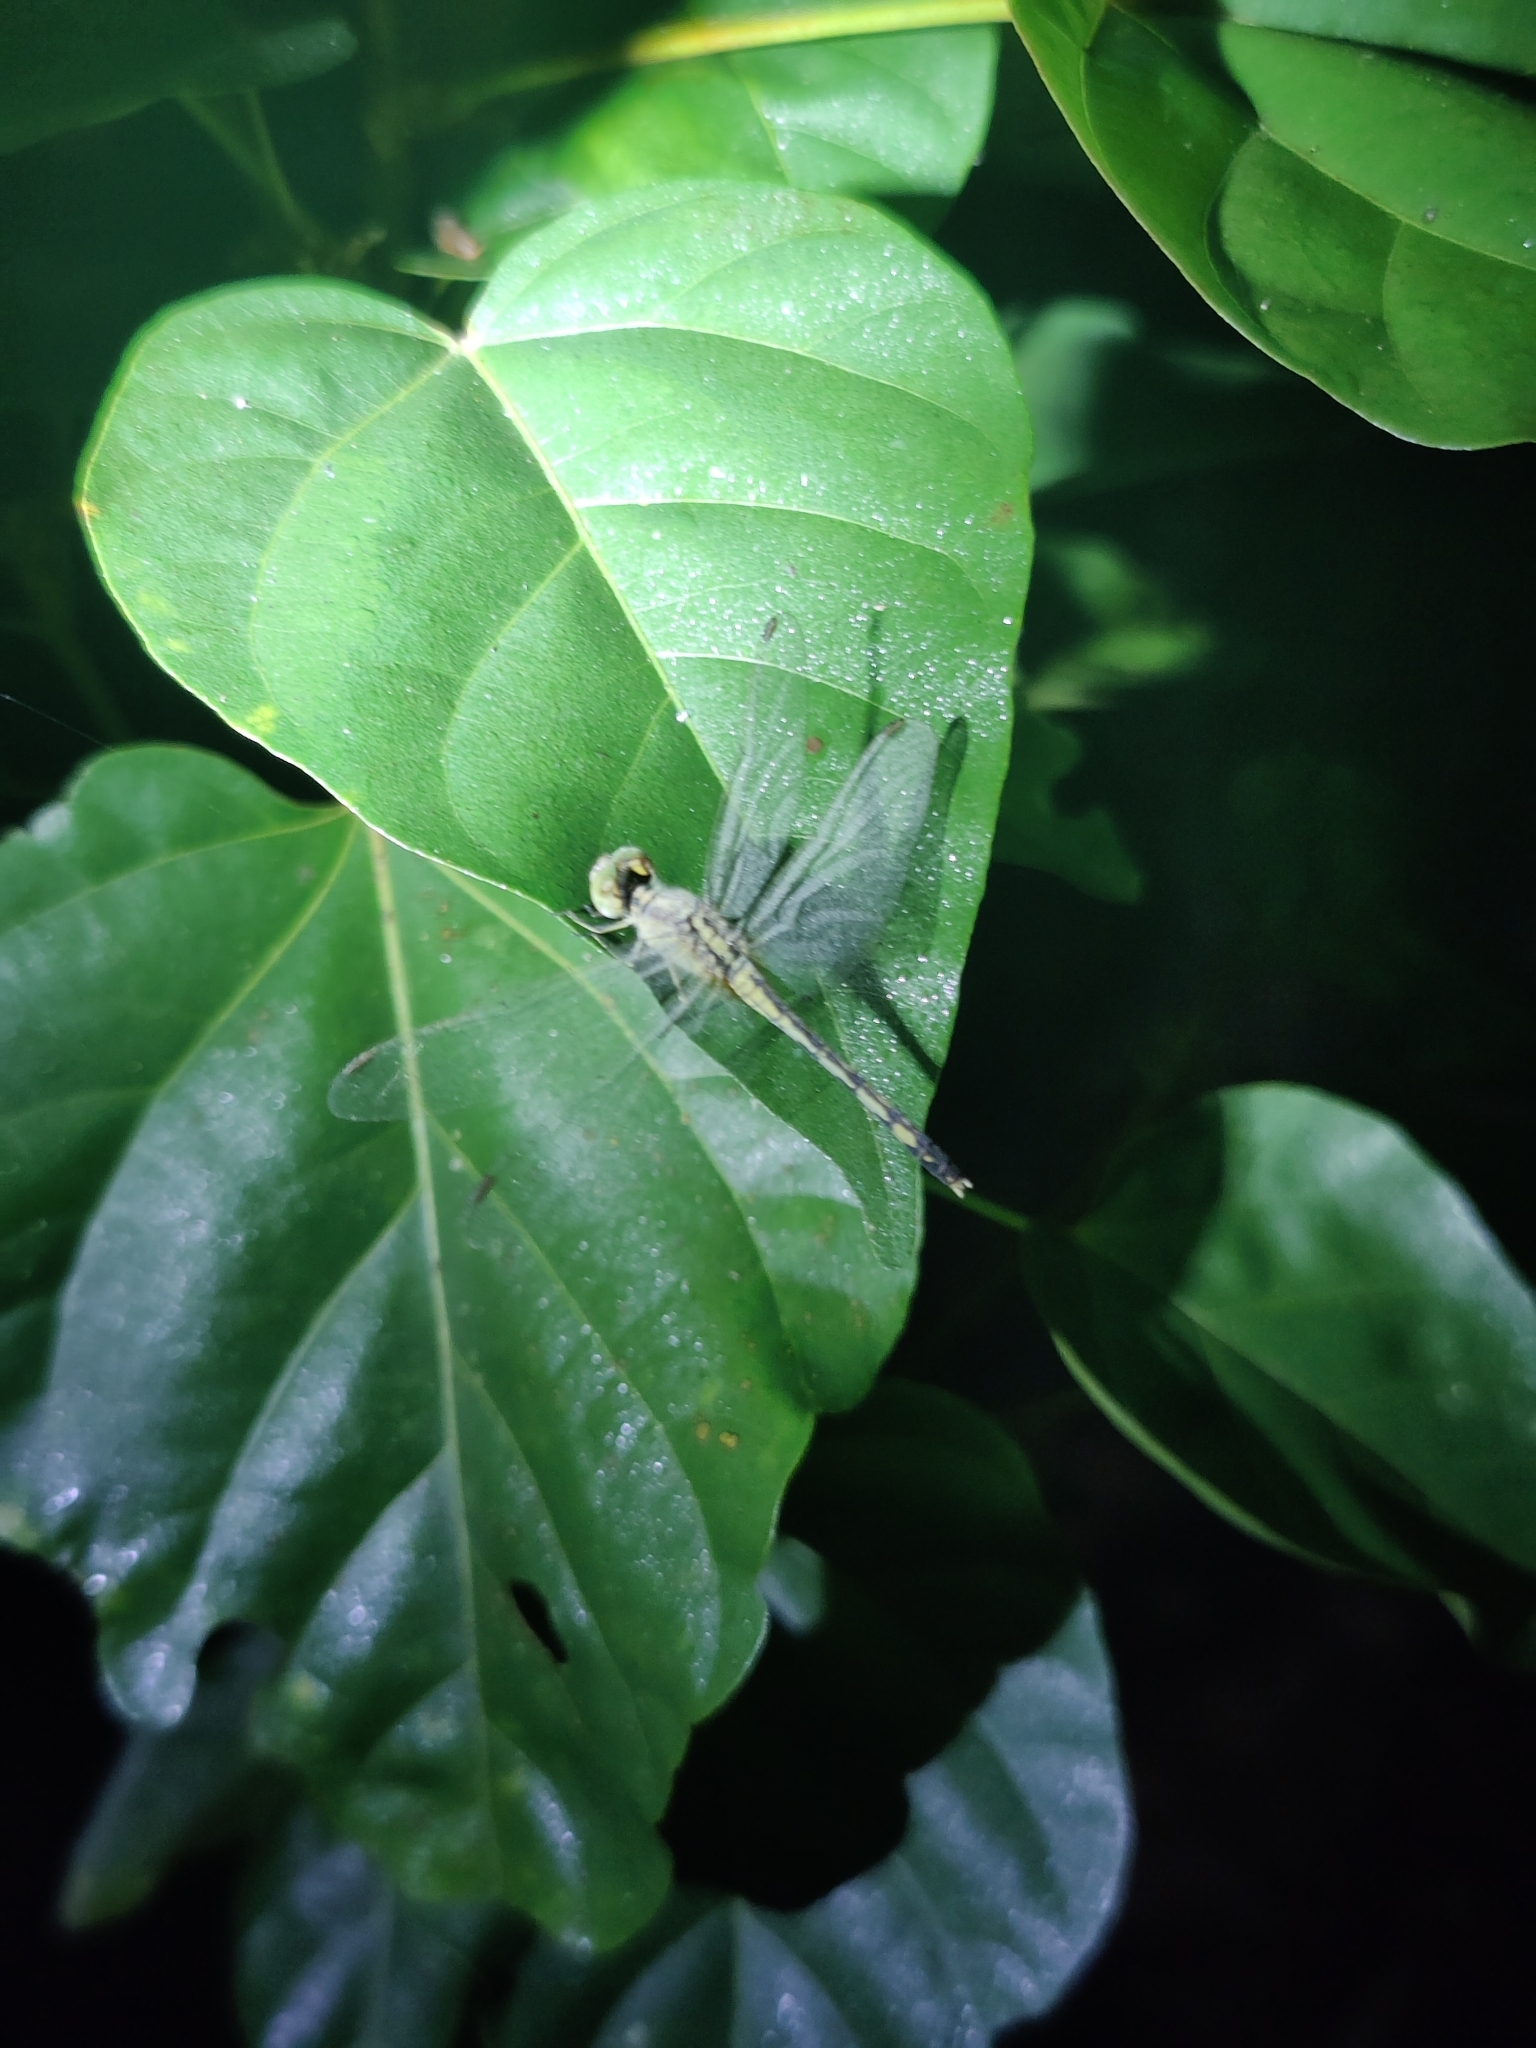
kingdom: Animalia
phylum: Arthropoda
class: Insecta
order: Odonata
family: Libellulidae
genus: Diplacodes
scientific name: Diplacodes trivialis
